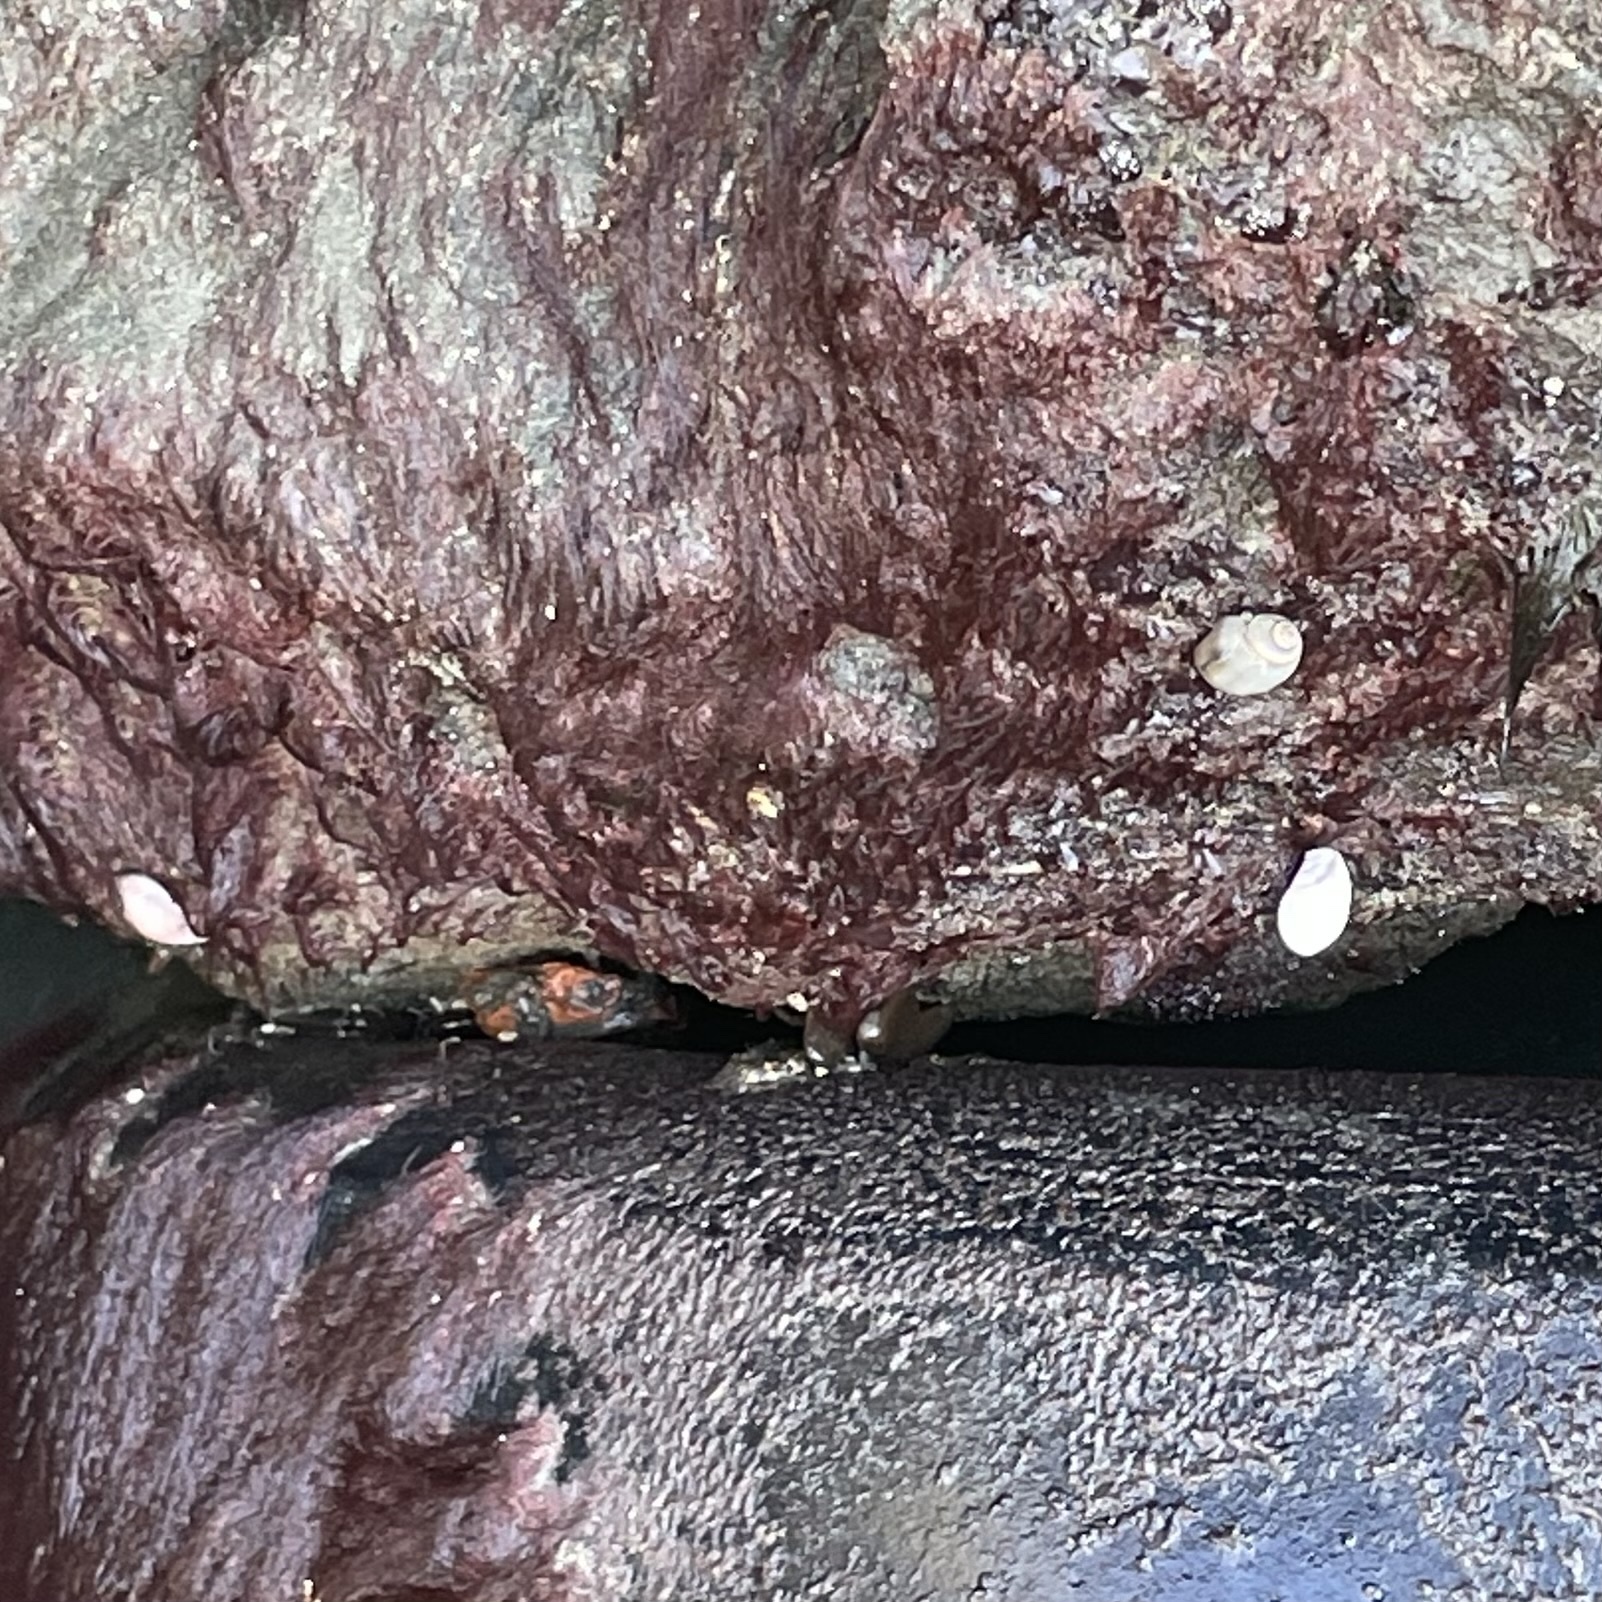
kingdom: Animalia
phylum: Mollusca
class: Gastropoda
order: Neogastropoda
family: Olividae
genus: Callianax
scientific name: Callianax biplicata
